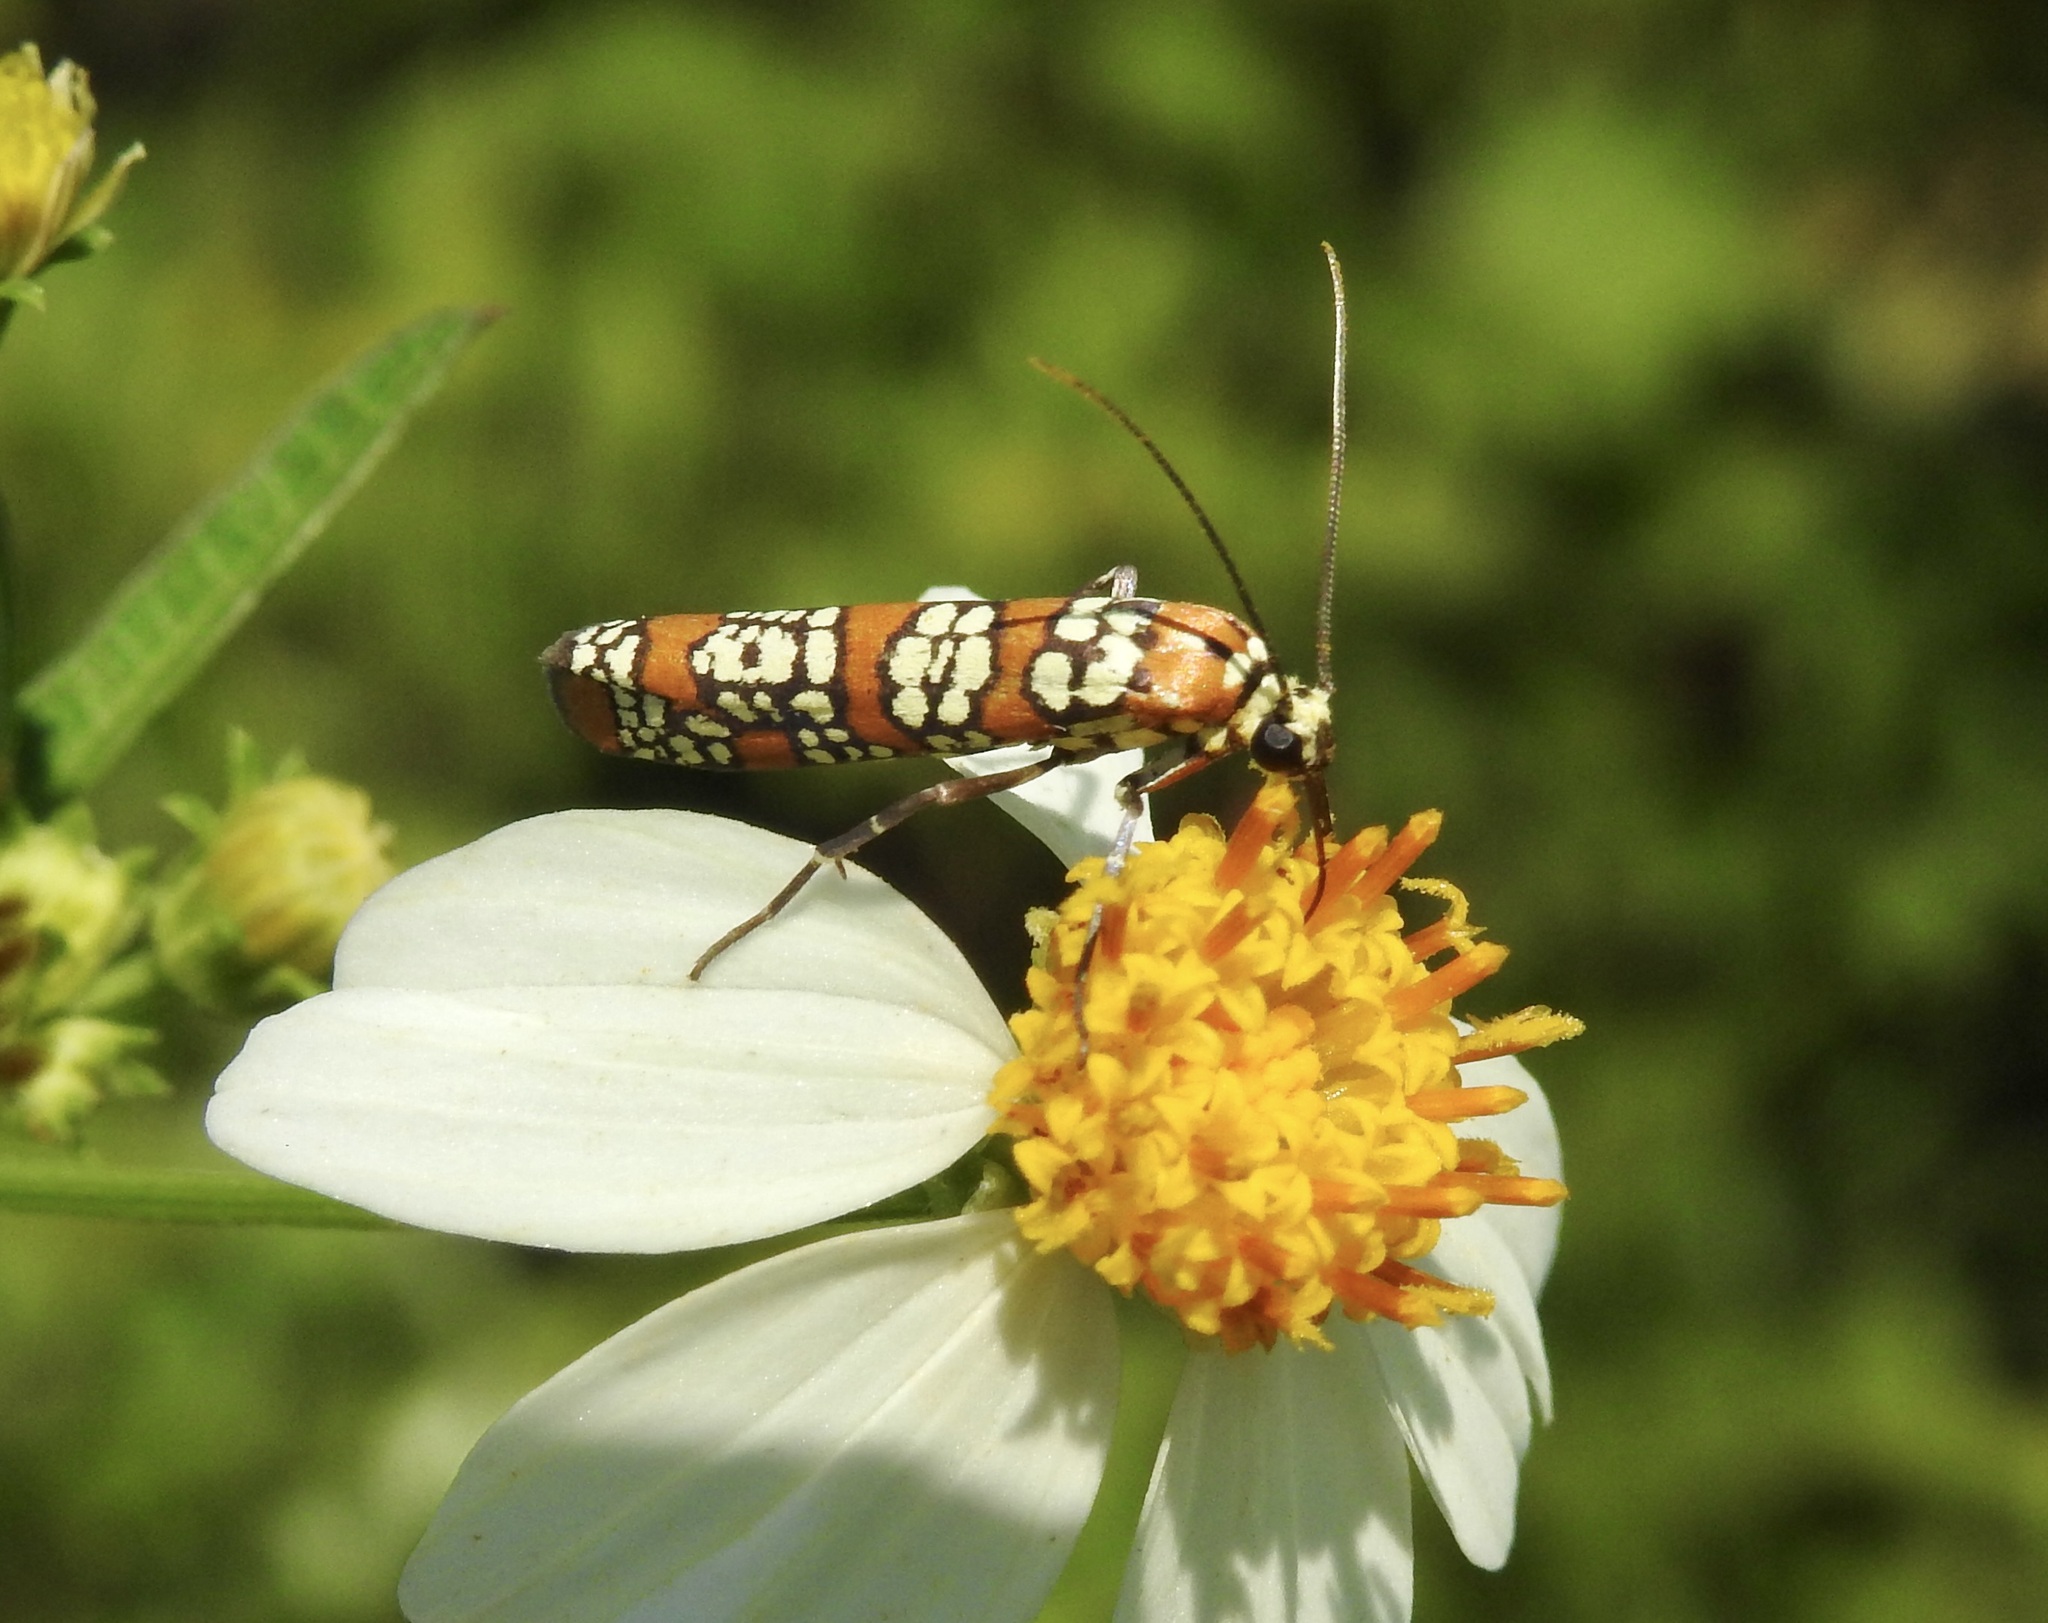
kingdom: Animalia
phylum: Arthropoda
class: Insecta
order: Lepidoptera
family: Attevidae
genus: Atteva
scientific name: Atteva punctella
